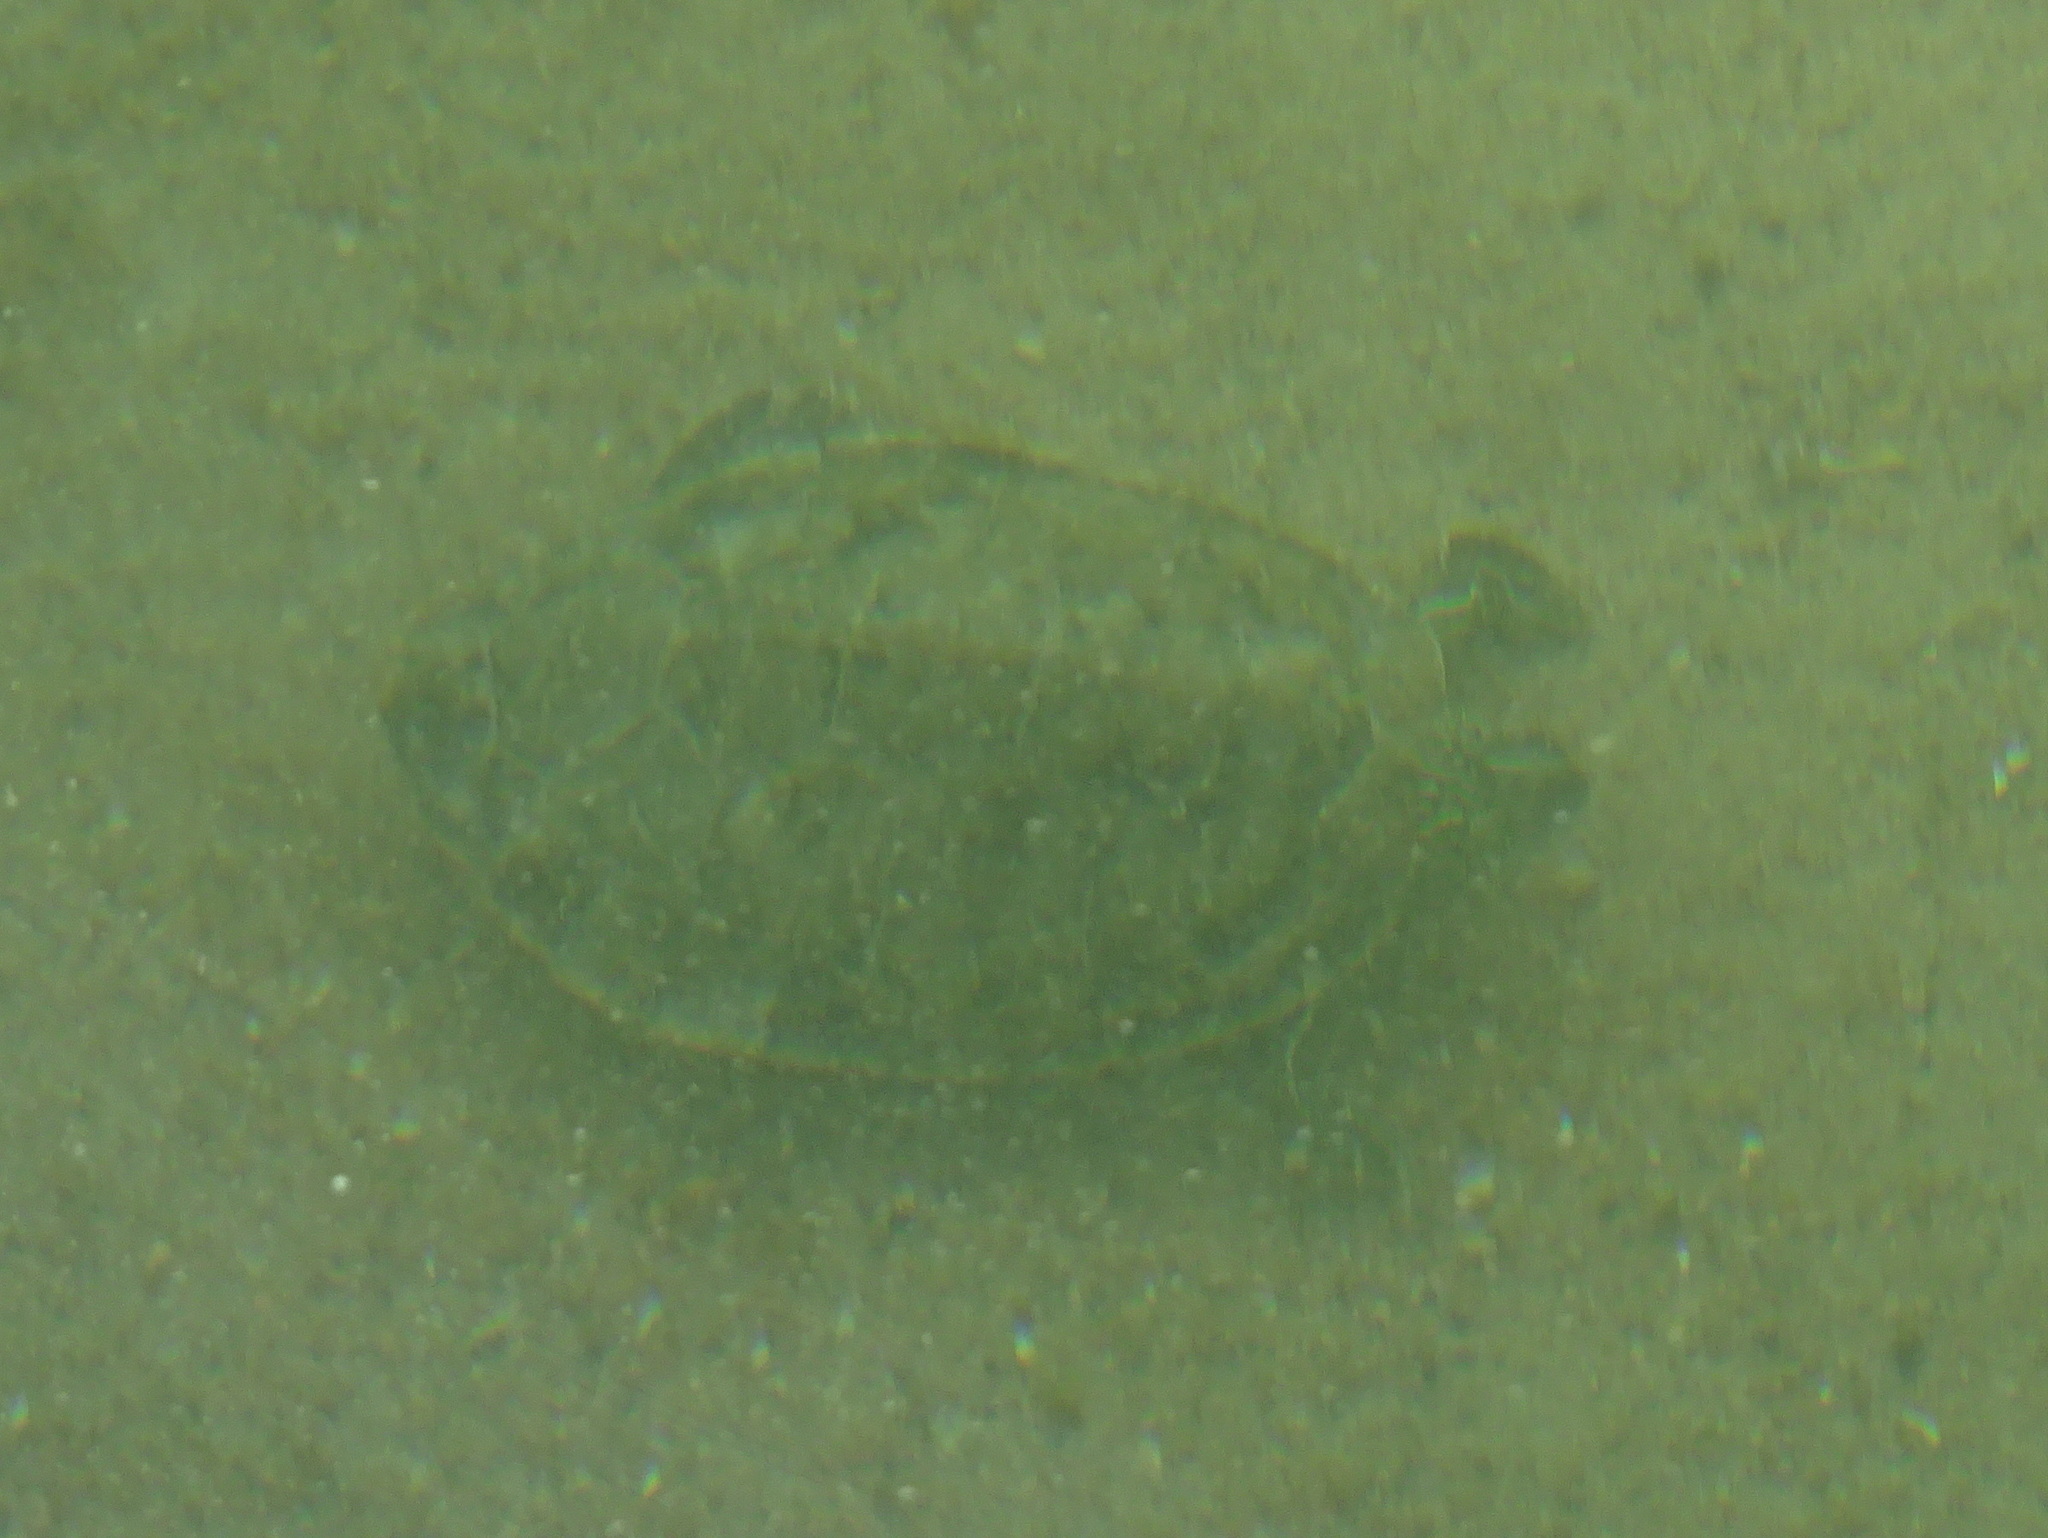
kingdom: Animalia
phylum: Chordata
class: Testudines
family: Emydidae
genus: Graptemys
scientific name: Graptemys geographica
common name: Common map turtle
